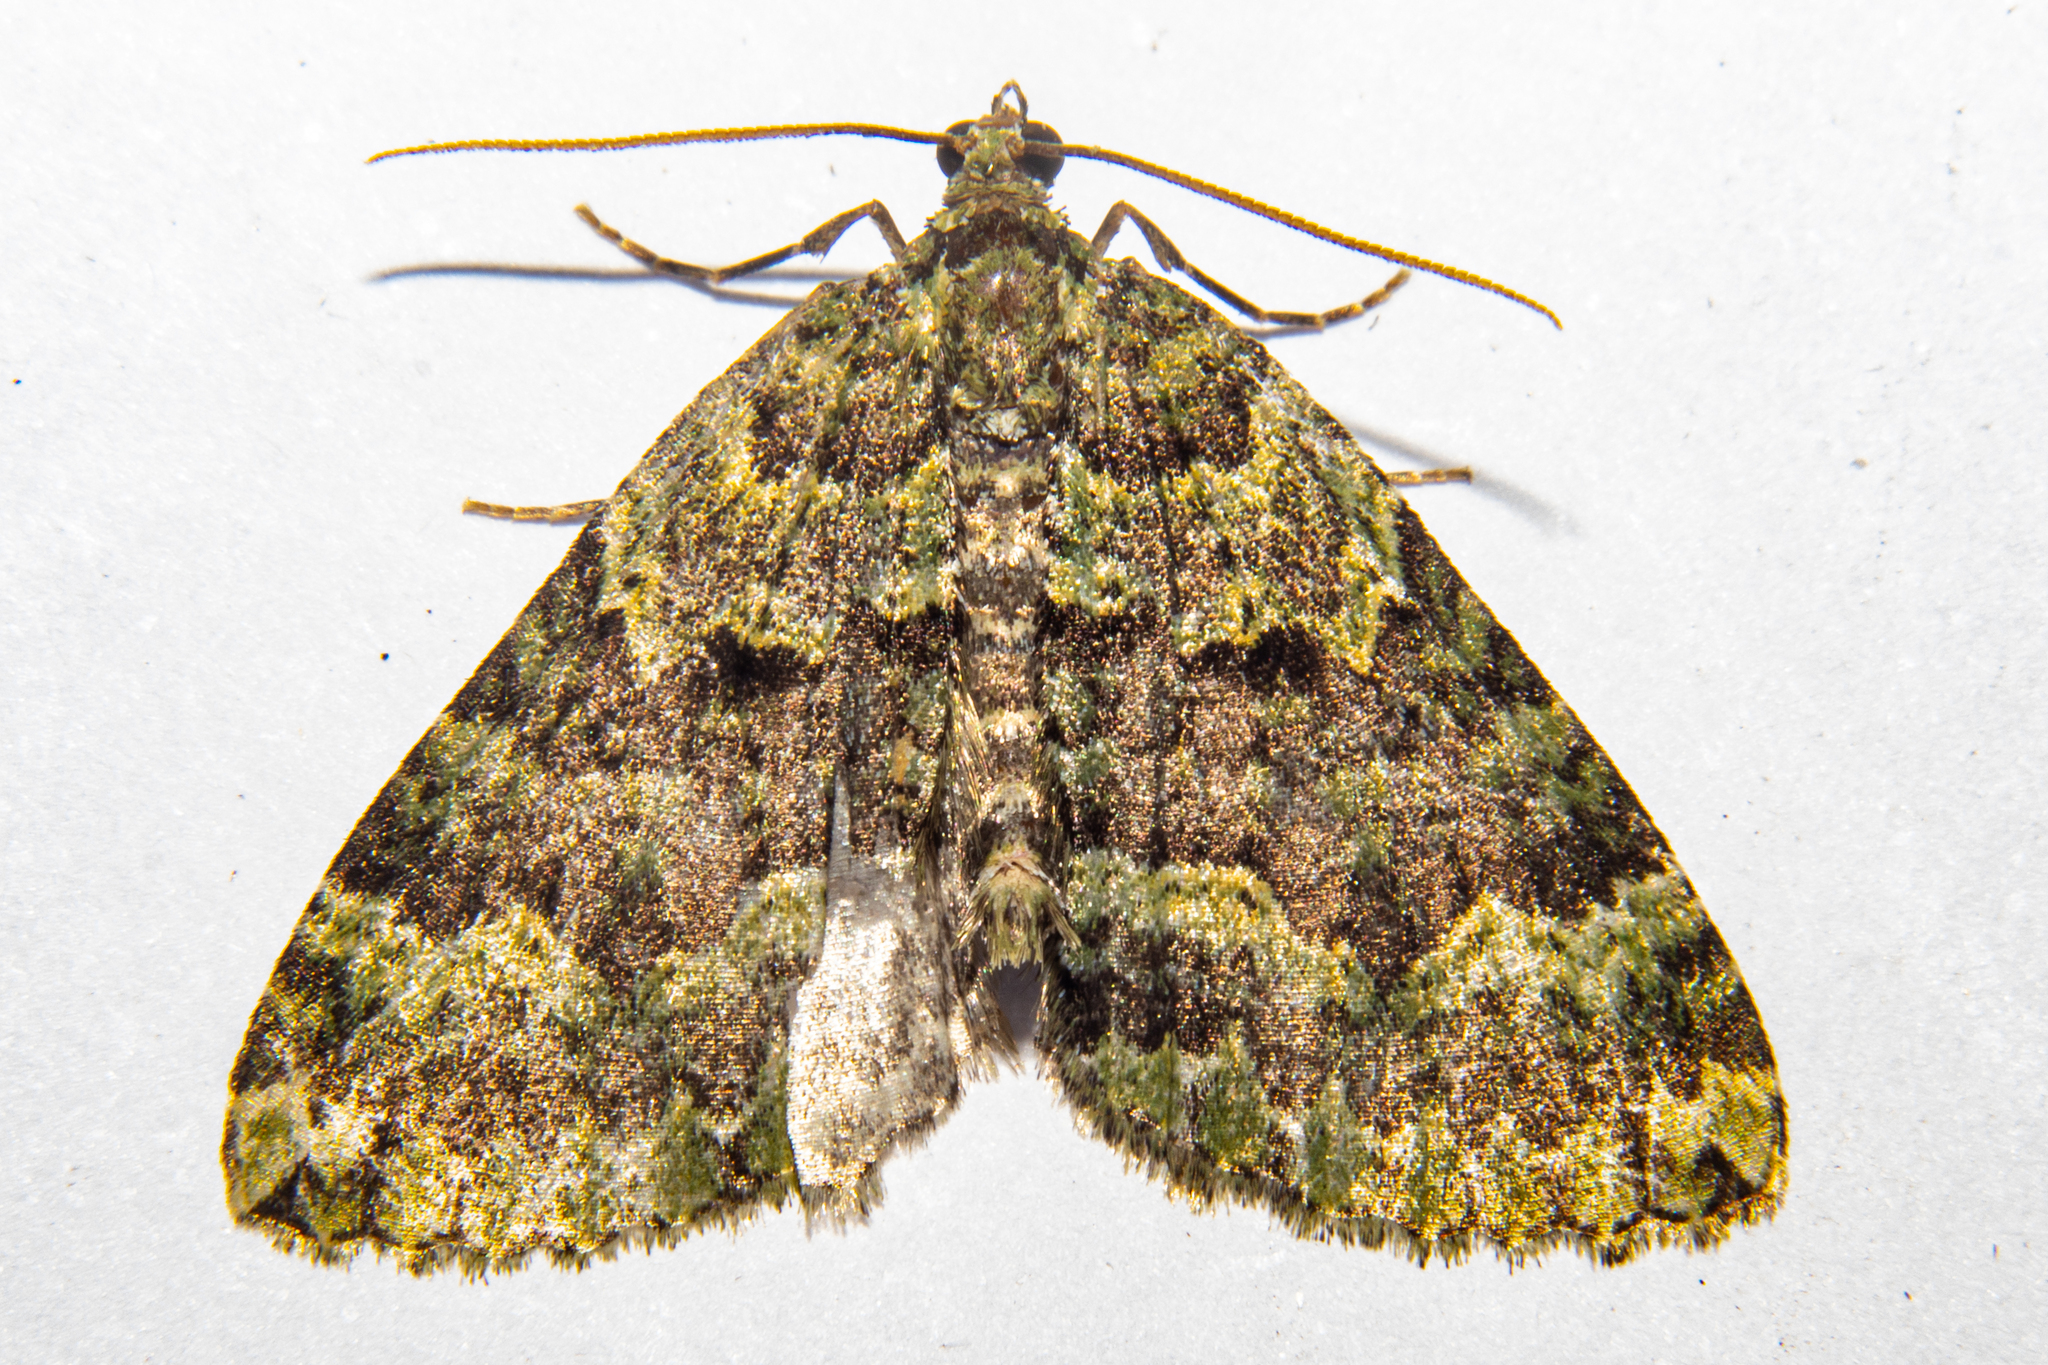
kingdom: Animalia
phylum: Arthropoda
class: Insecta
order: Lepidoptera
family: Geometridae
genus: Austrocidaria
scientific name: Austrocidaria callichlora
